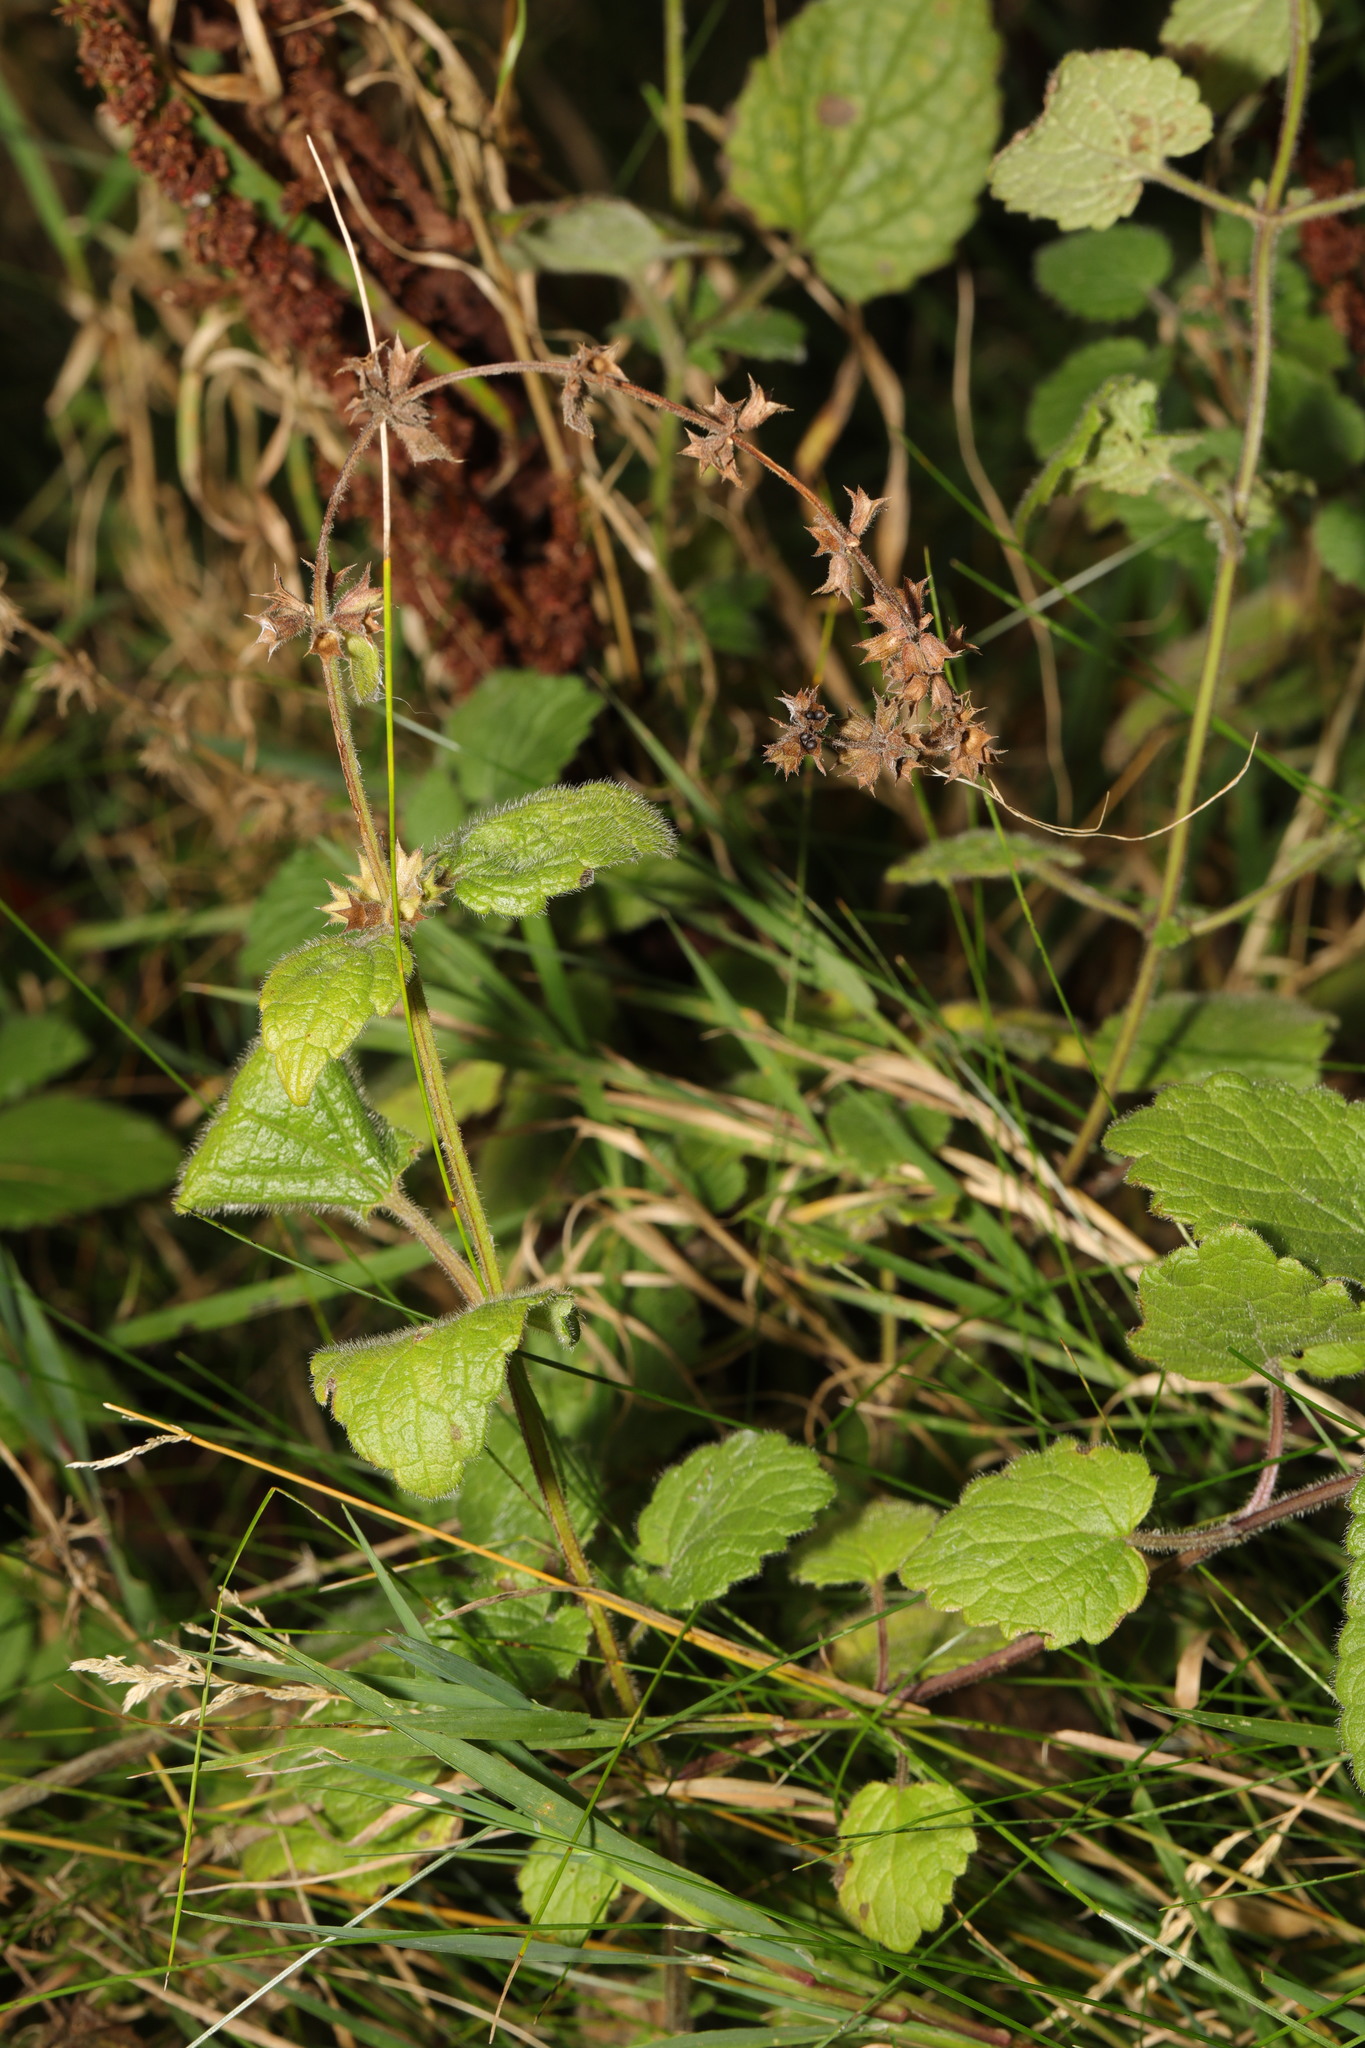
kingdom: Plantae
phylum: Tracheophyta
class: Magnoliopsida
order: Lamiales
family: Lamiaceae
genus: Stachys
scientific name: Stachys sylvatica
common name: Hedge woundwort
